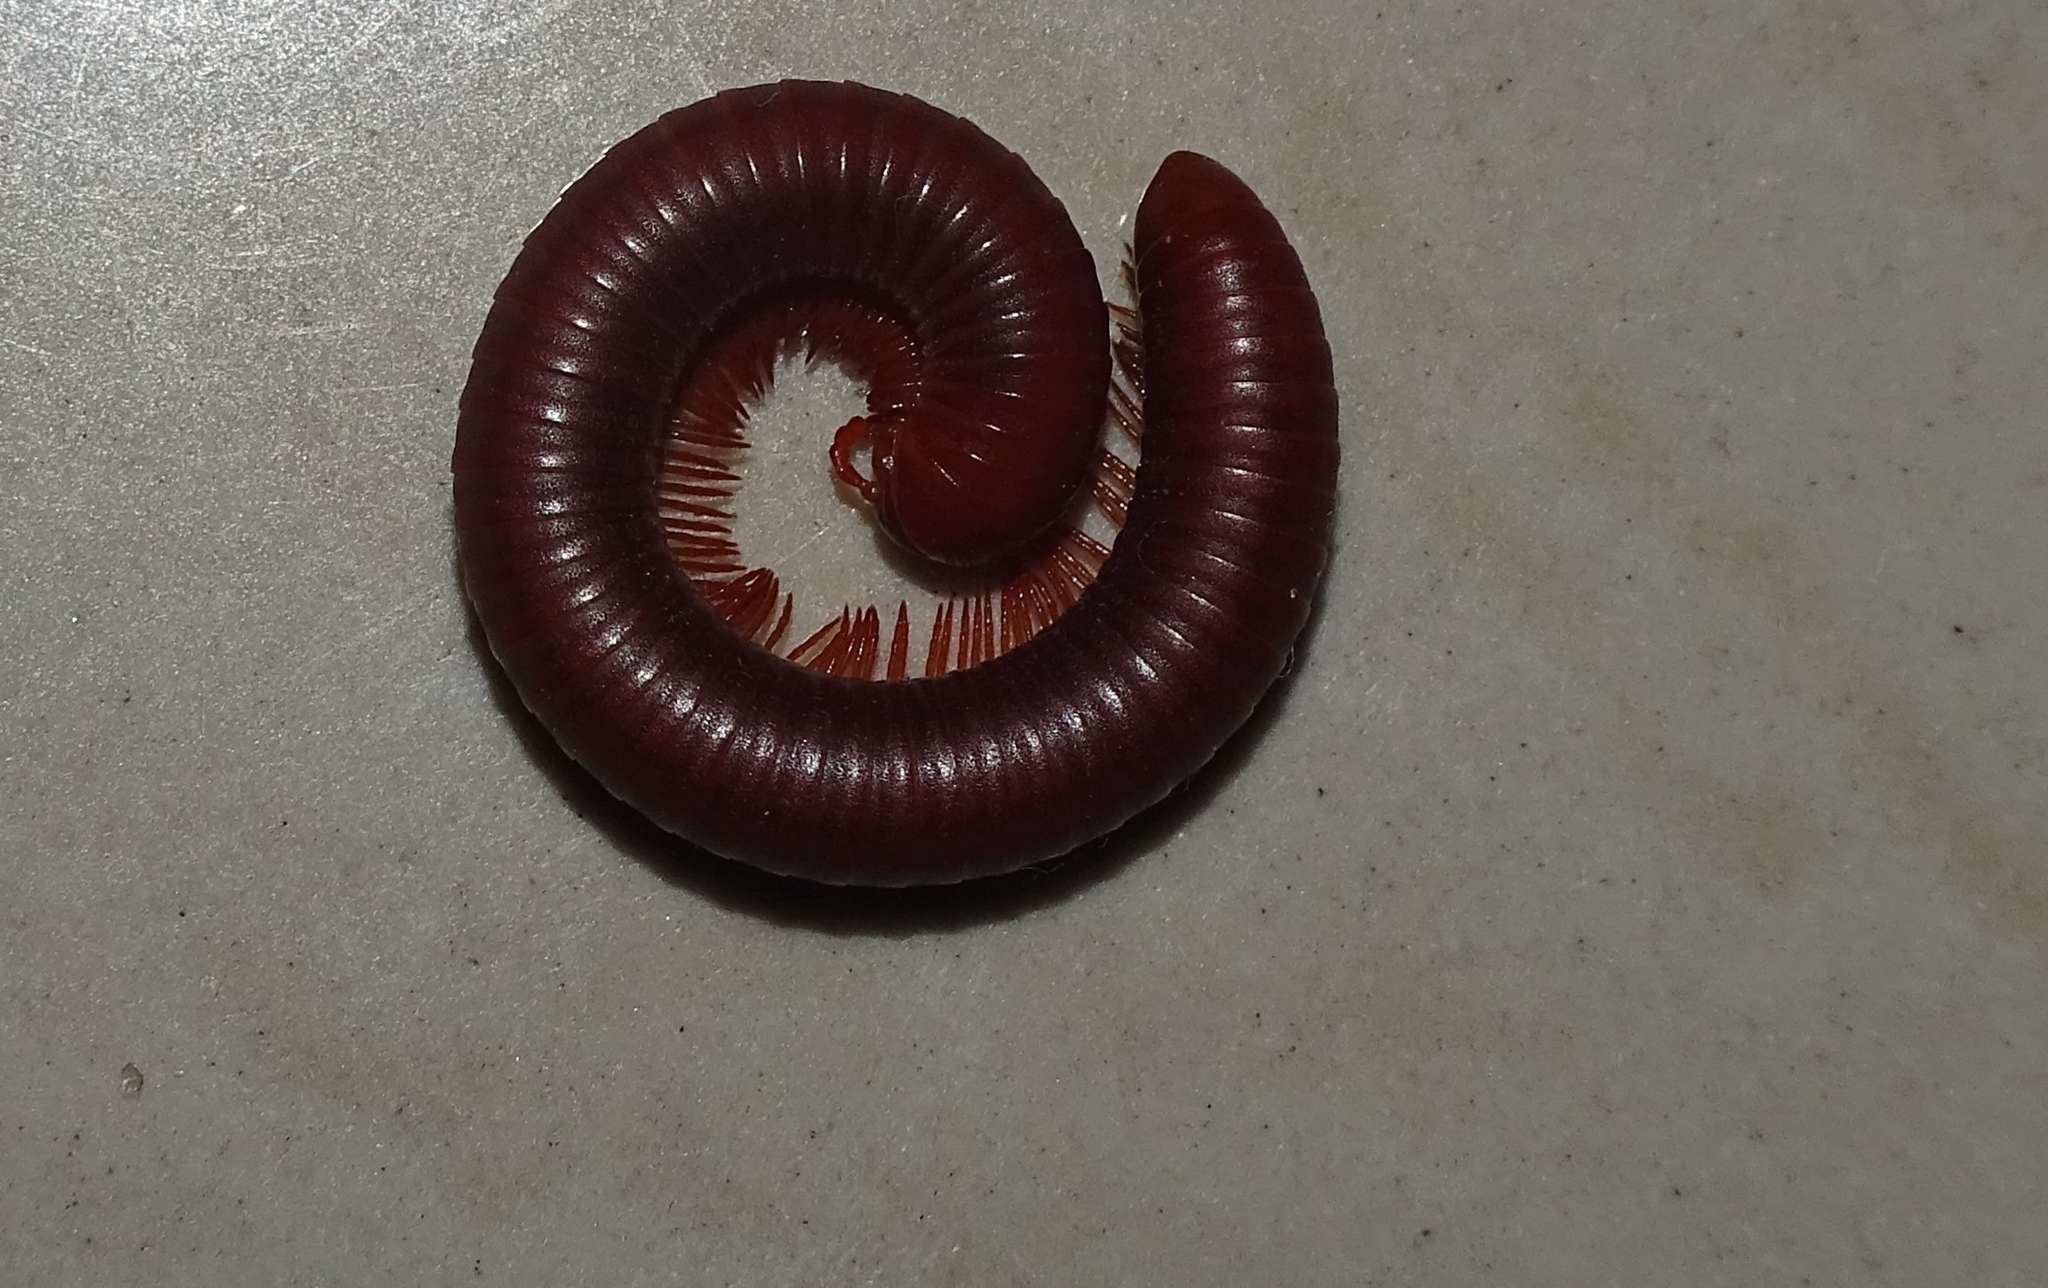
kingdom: Animalia
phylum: Arthropoda
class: Diplopoda
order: Spirobolida
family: Pachybolidae
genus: Trigoniulus
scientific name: Trigoniulus corallinus
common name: Millipede
